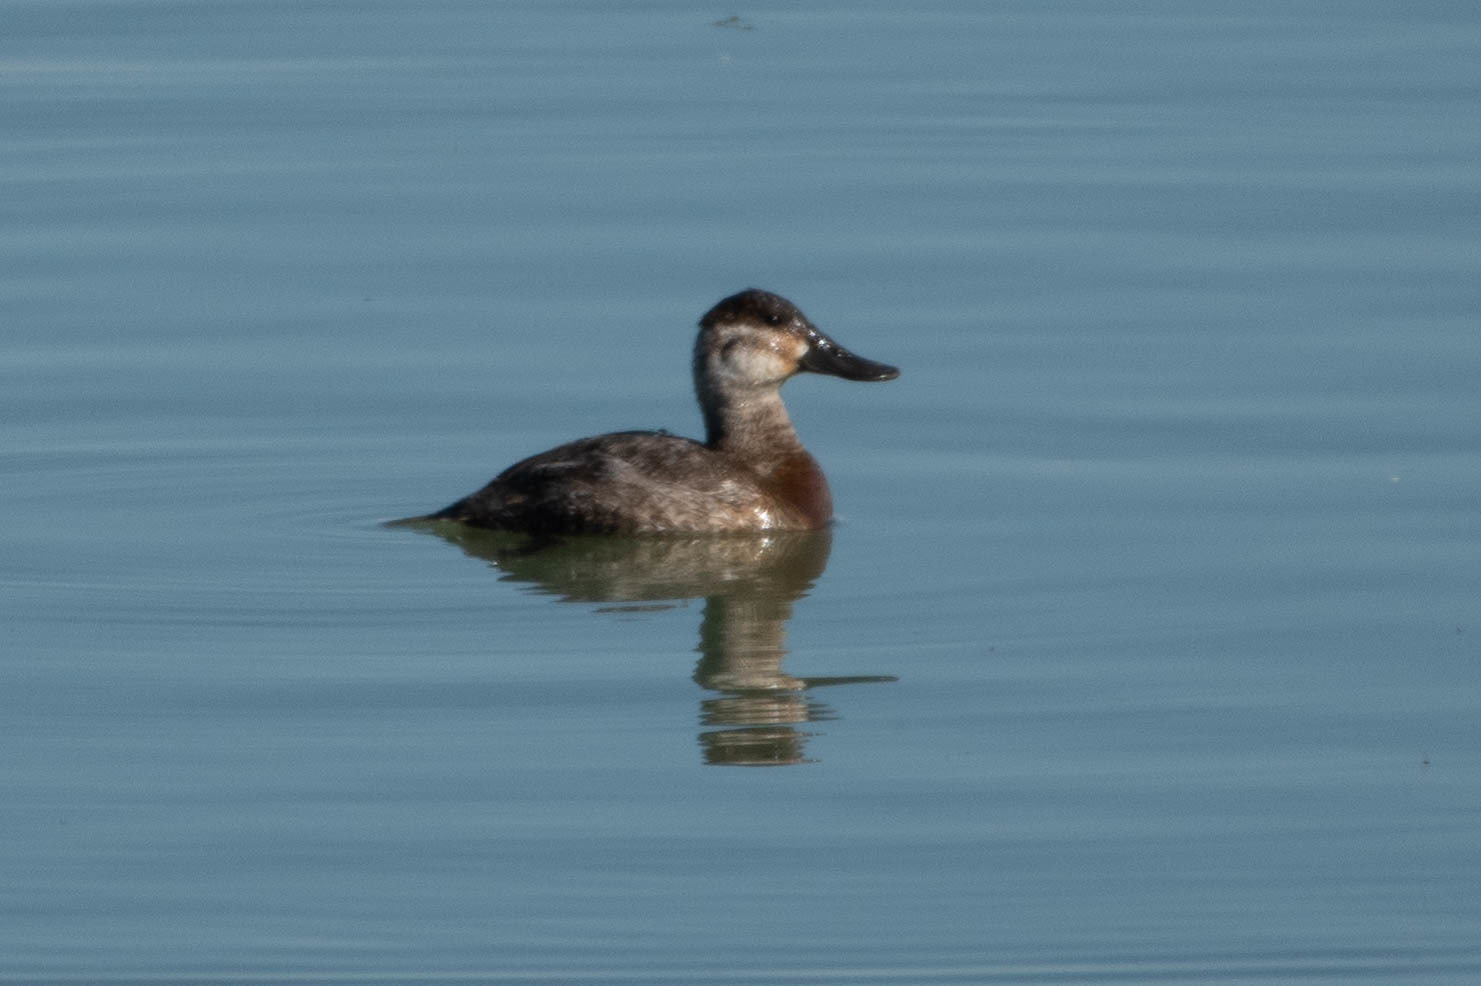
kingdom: Animalia
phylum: Chordata
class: Aves
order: Anseriformes
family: Anatidae
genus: Oxyura
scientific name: Oxyura jamaicensis
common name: Ruddy duck
